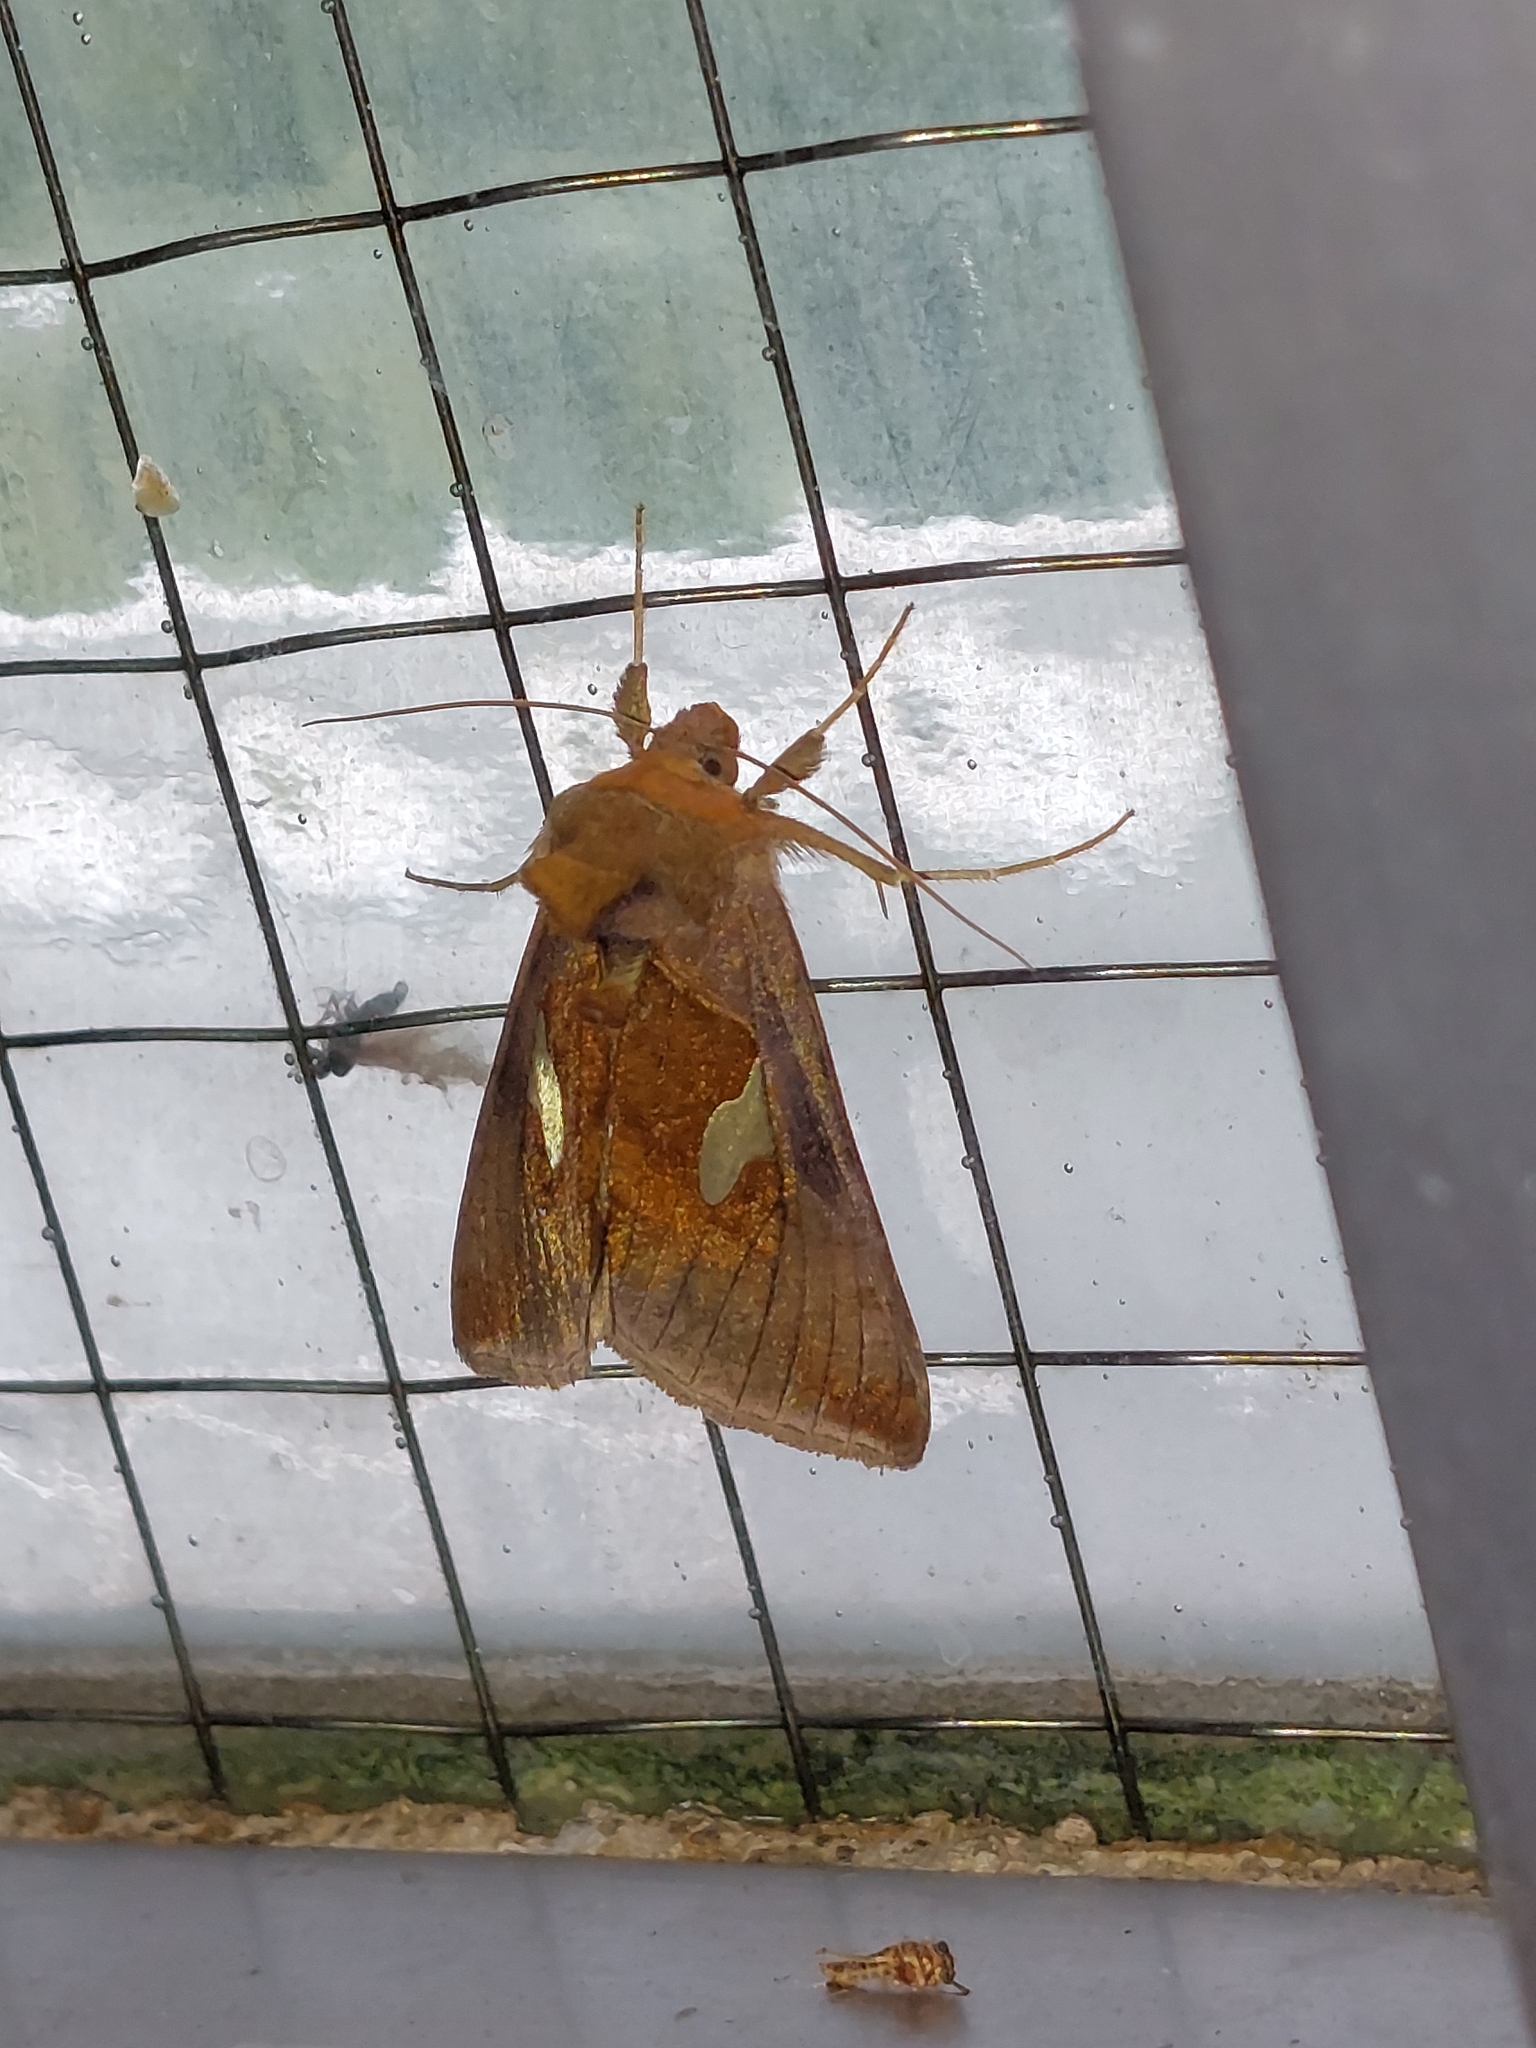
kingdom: Animalia
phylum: Arthropoda
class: Insecta
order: Lepidoptera
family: Noctuidae
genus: Autographa
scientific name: Autographa bractea
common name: Gold spangle
